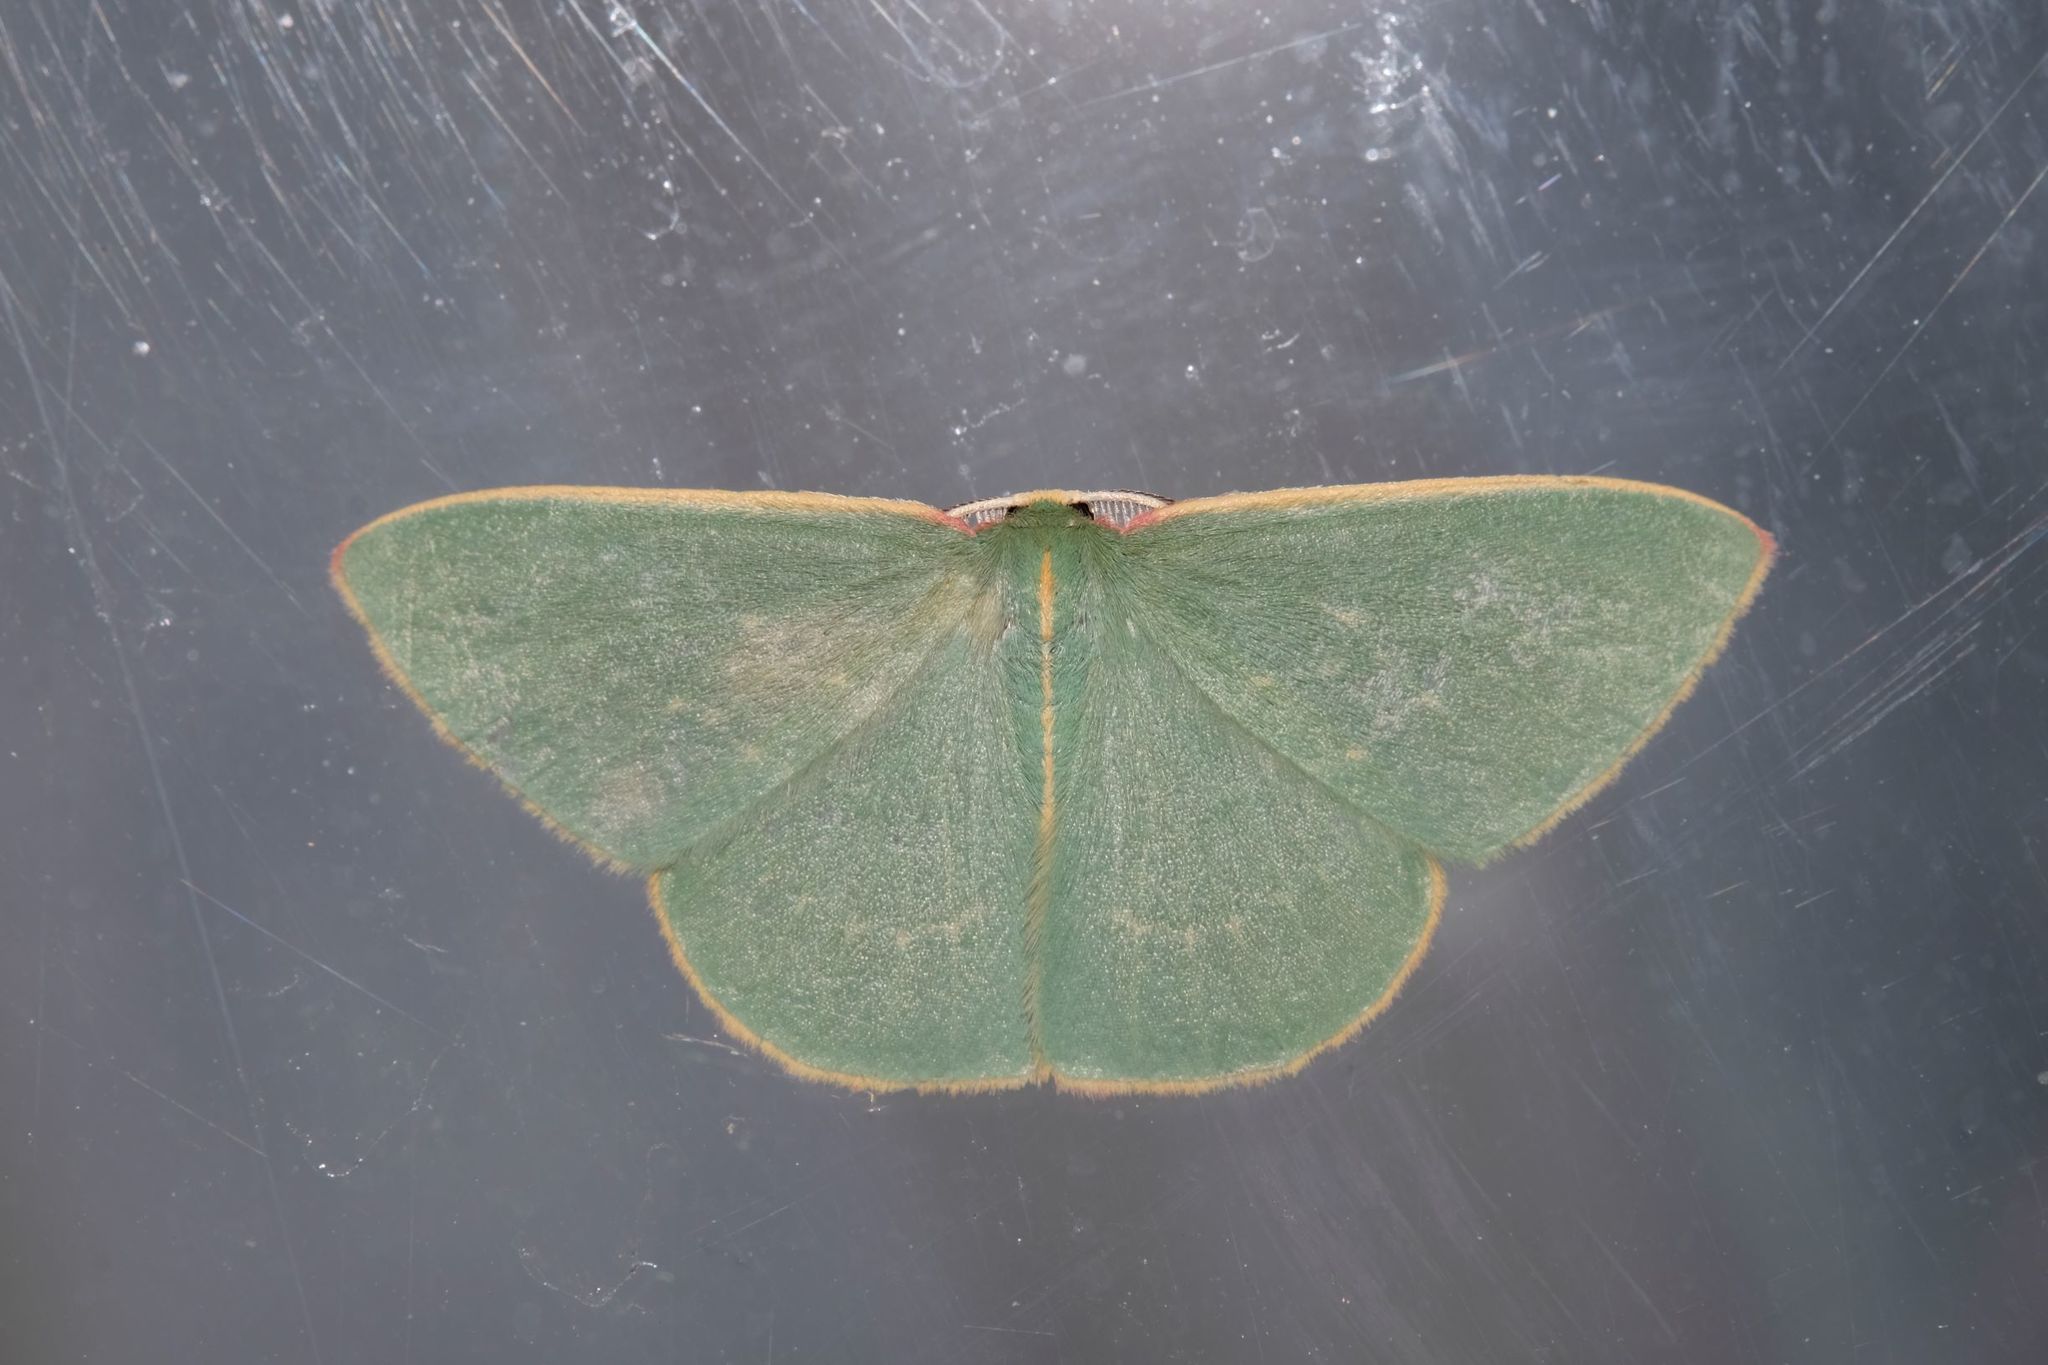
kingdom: Animalia
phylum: Arthropoda
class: Insecta
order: Lepidoptera
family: Geometridae
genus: Chlorocoma
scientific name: Chlorocoma dichloraria
